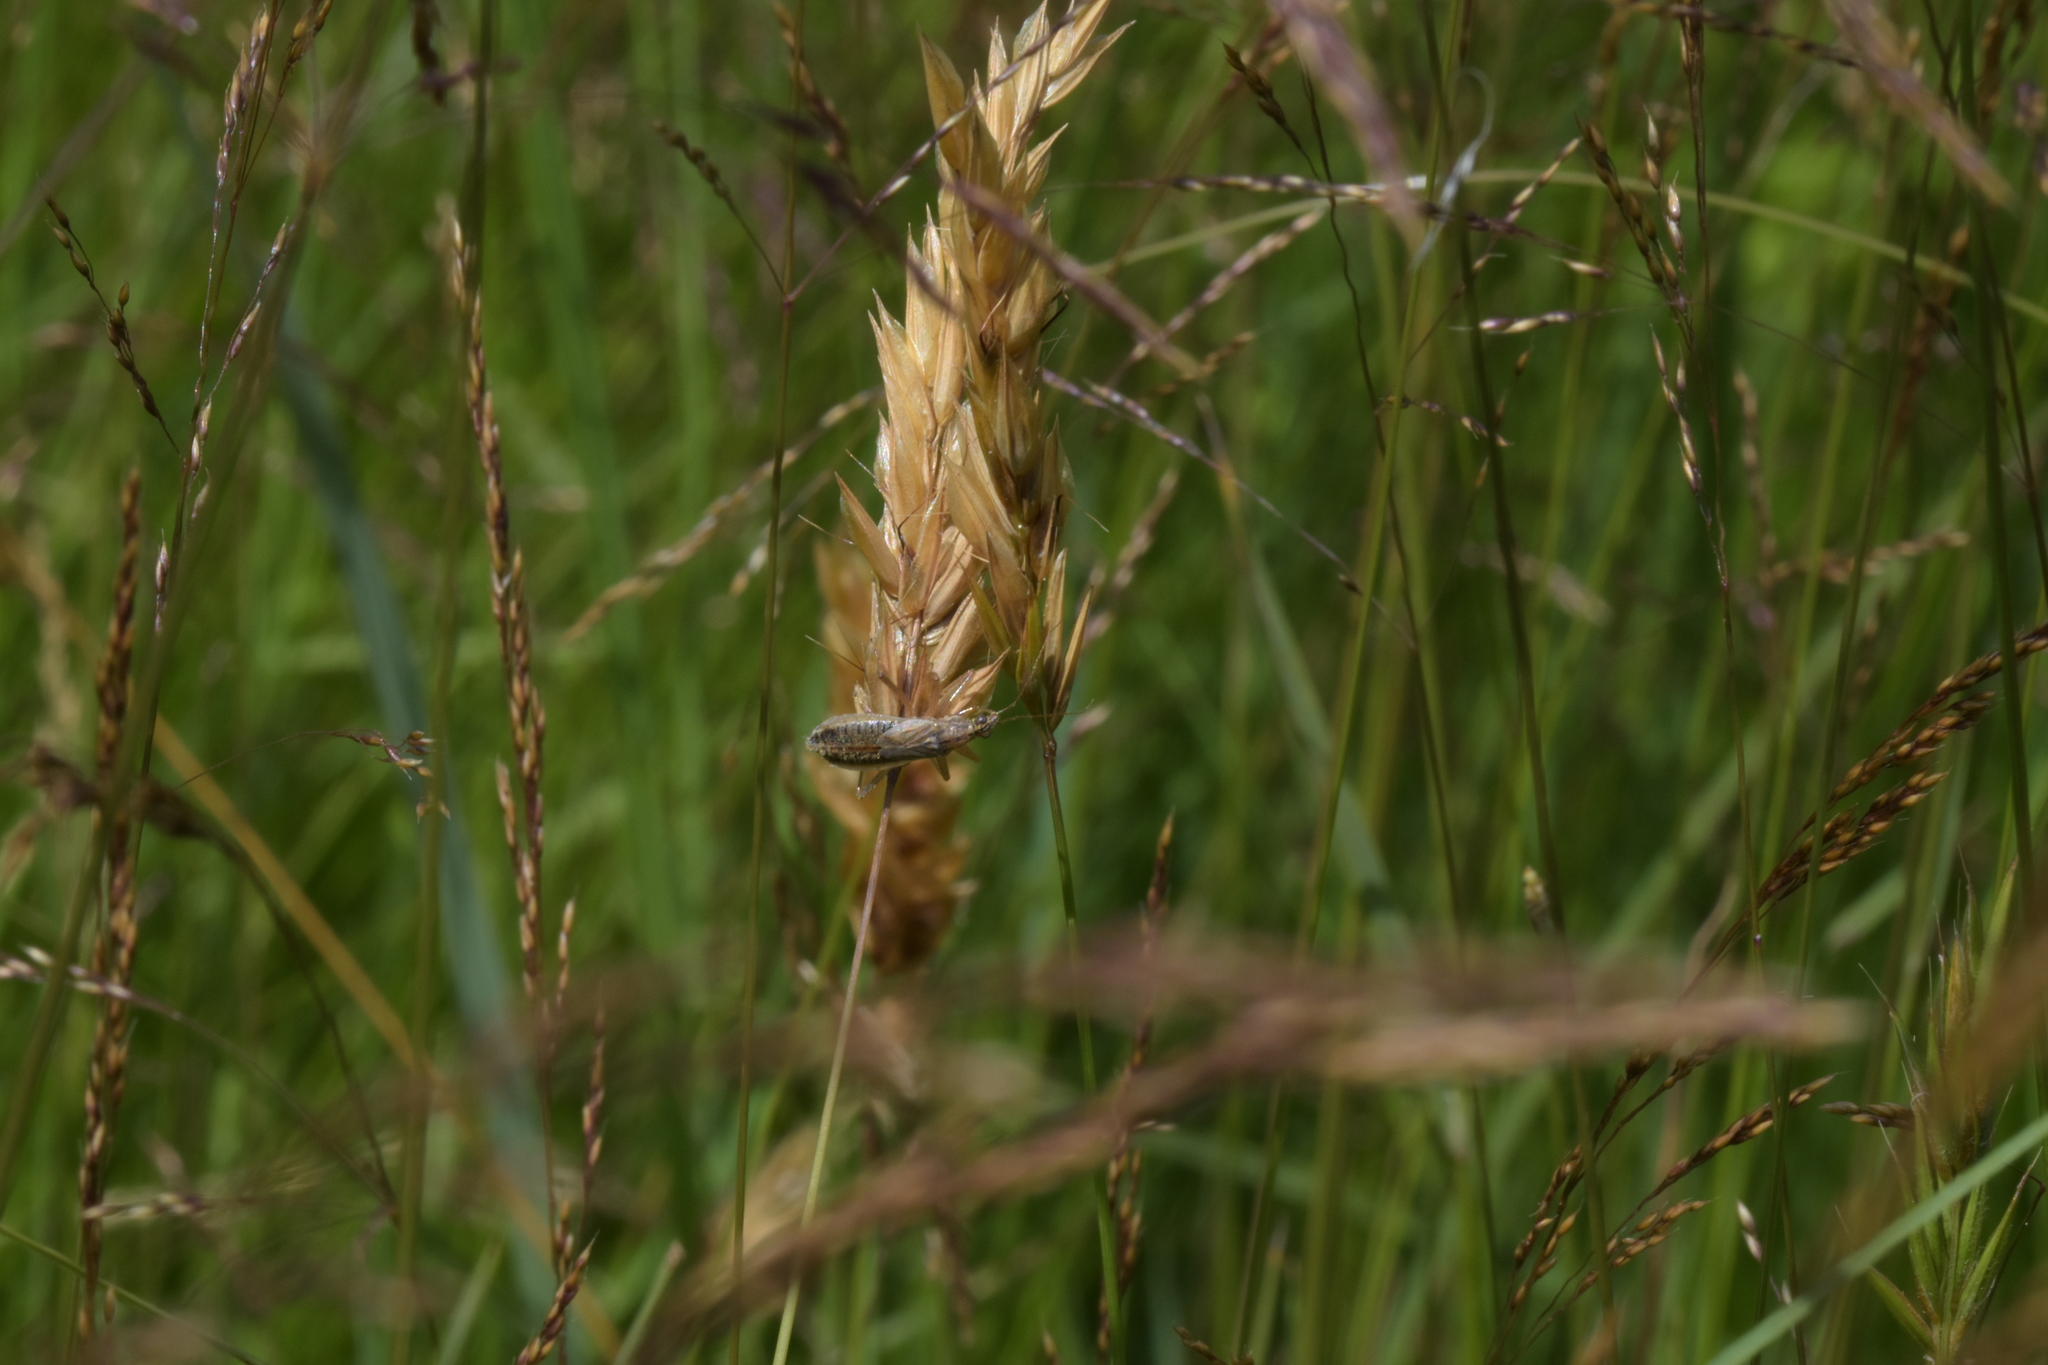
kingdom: Animalia
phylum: Arthropoda
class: Insecta
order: Hemiptera
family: Nabidae
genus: Nabis
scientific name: Nabis flavomarginatus
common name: Broad damselbug
